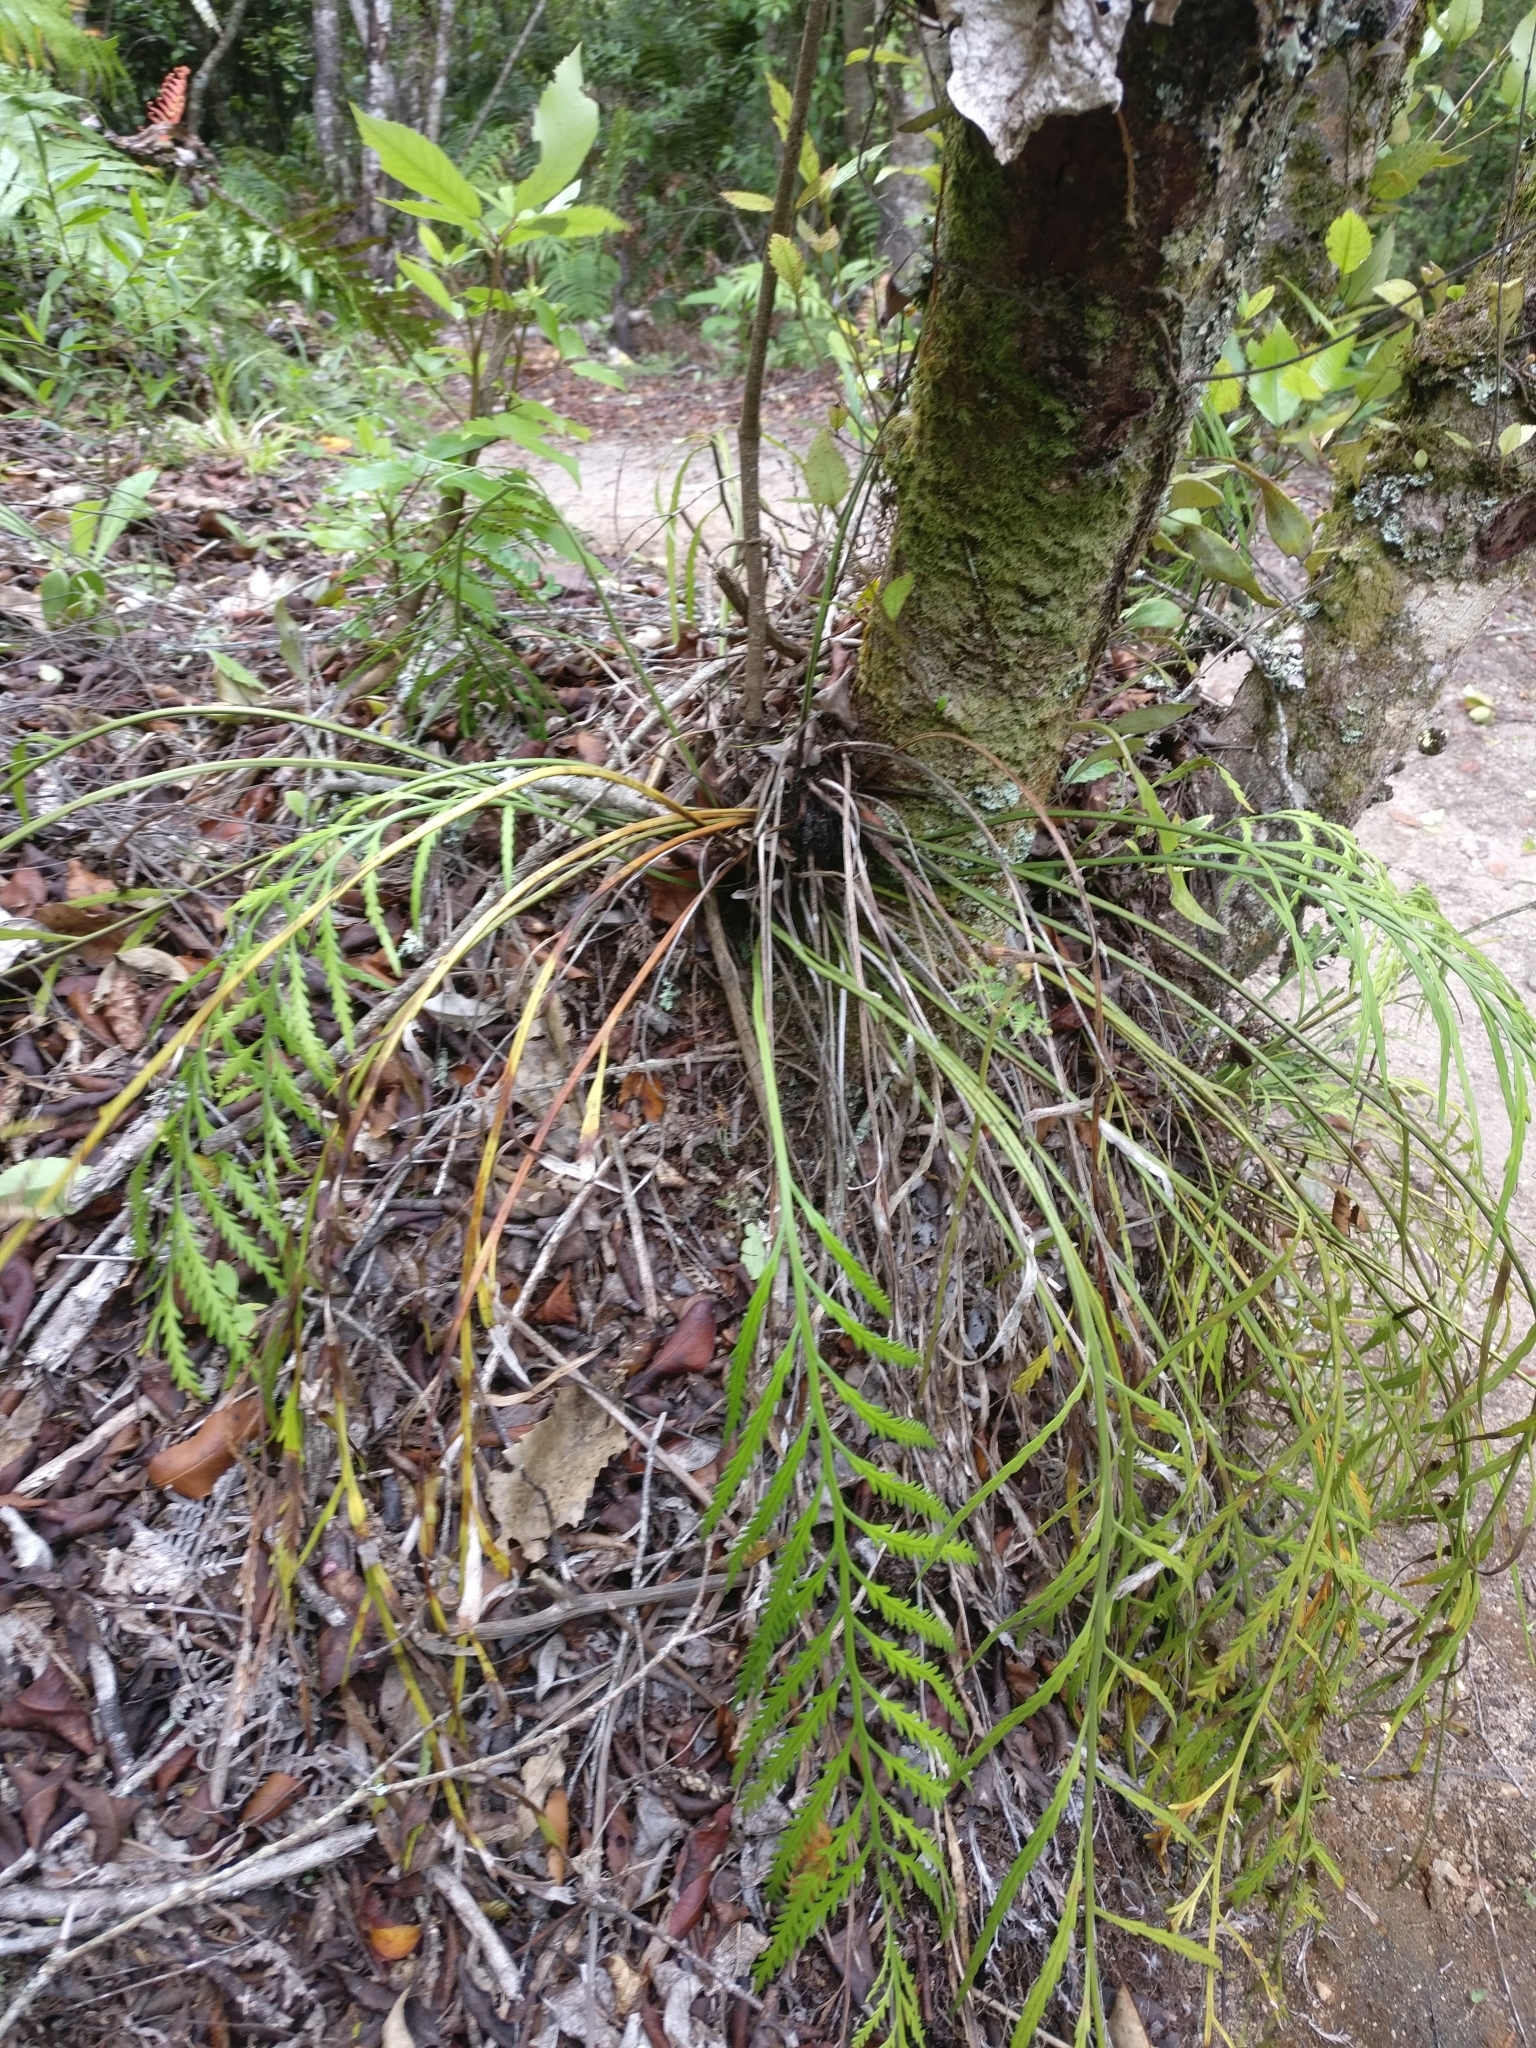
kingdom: Plantae
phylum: Tracheophyta
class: Polypodiopsida
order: Polypodiales
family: Aspleniaceae
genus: Asplenium
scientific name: Asplenium flaccidum
